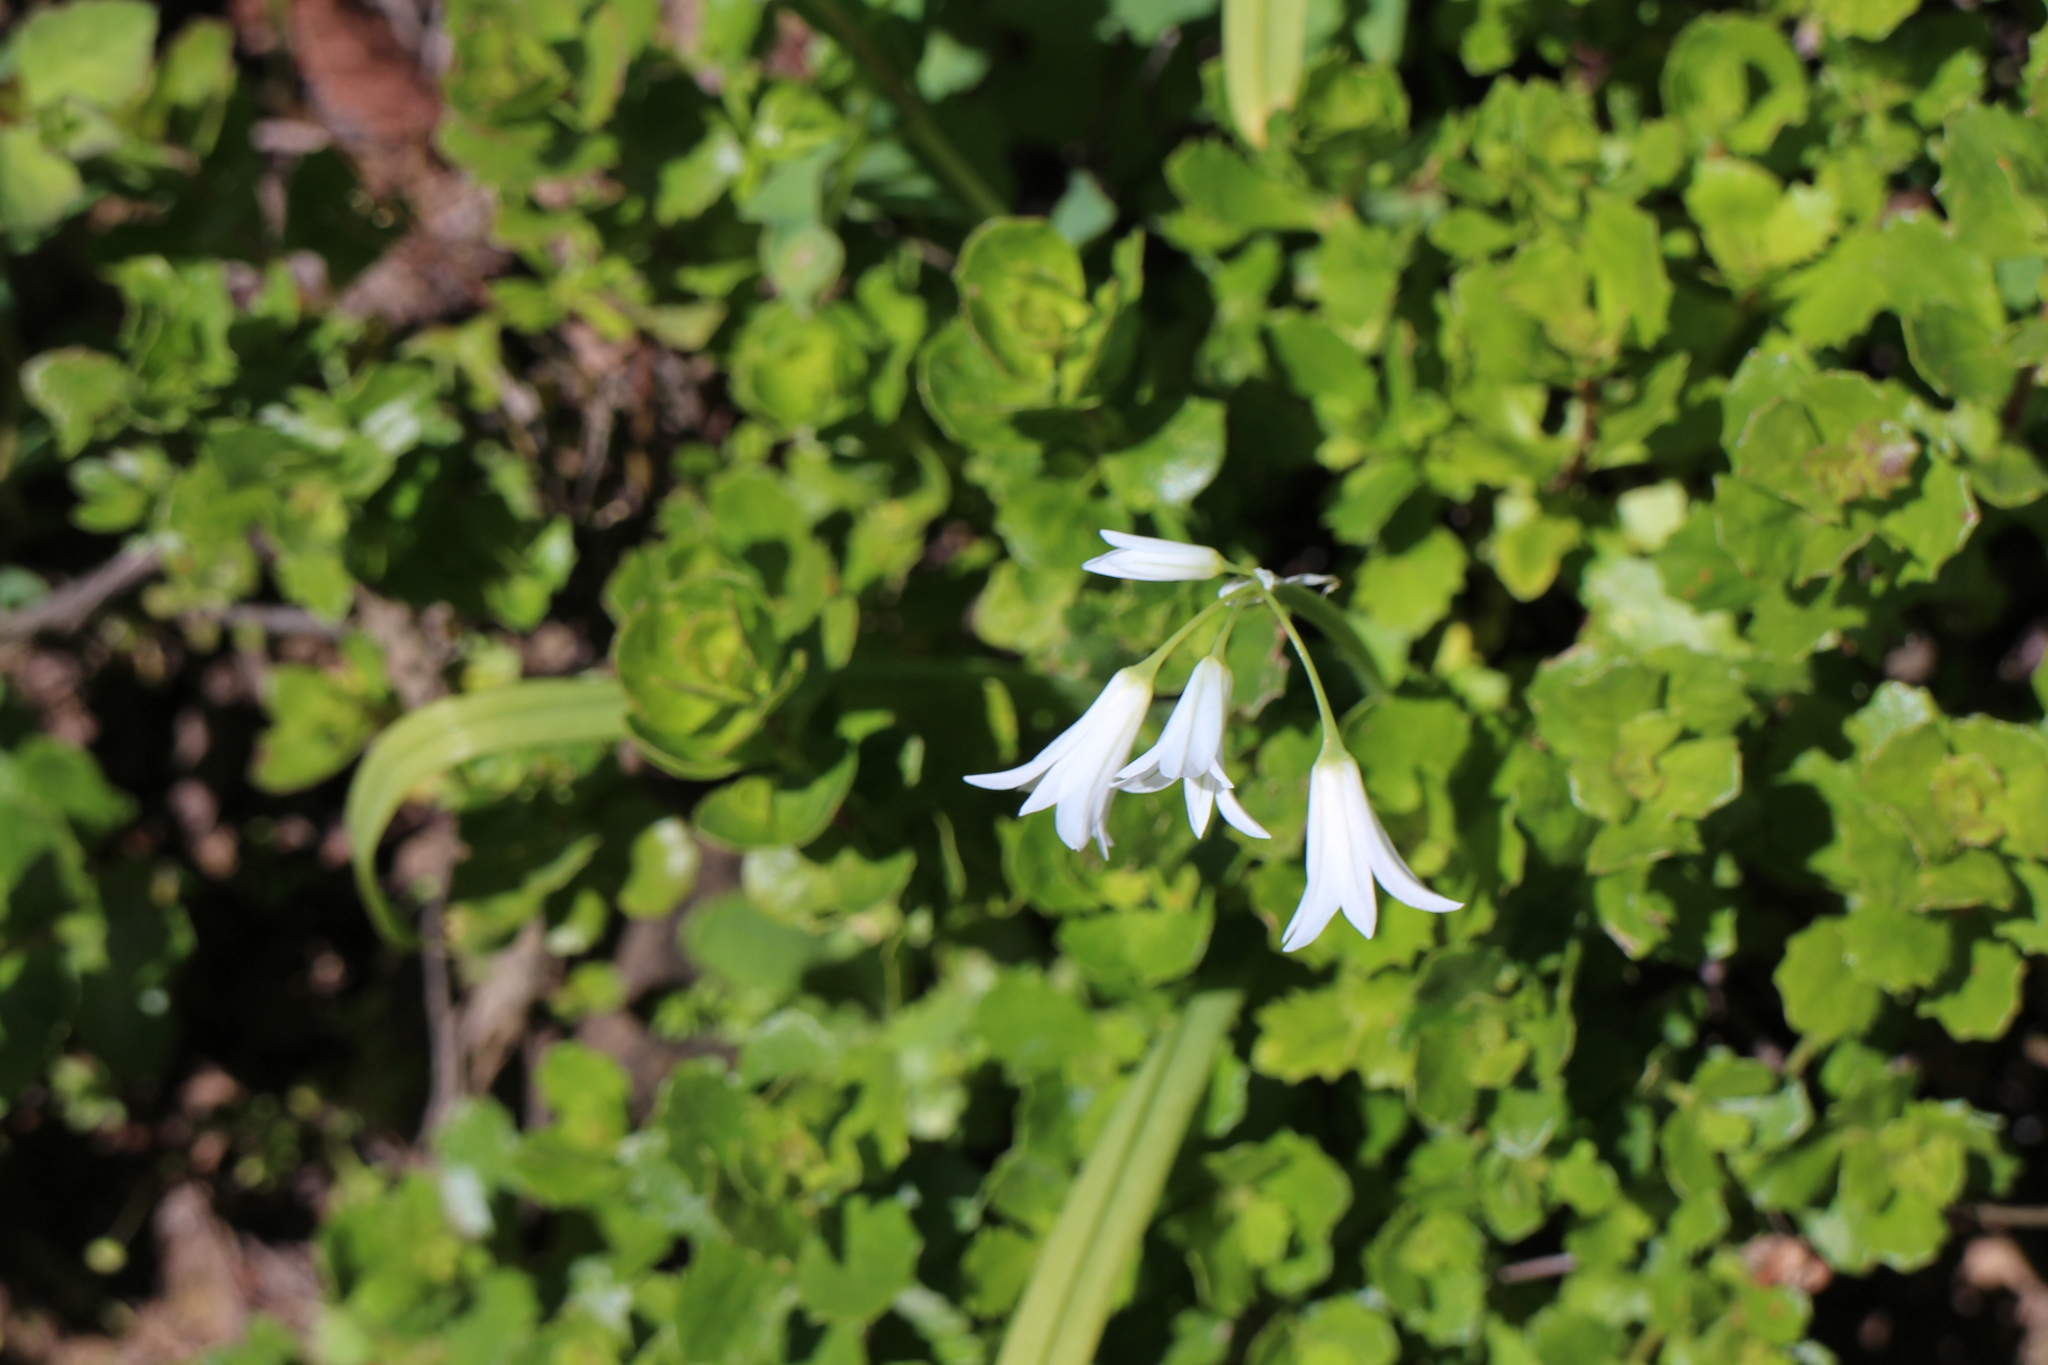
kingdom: Plantae
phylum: Tracheophyta
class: Liliopsida
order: Asparagales
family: Amaryllidaceae
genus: Allium
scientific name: Allium triquetrum
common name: Three-cornered garlic
